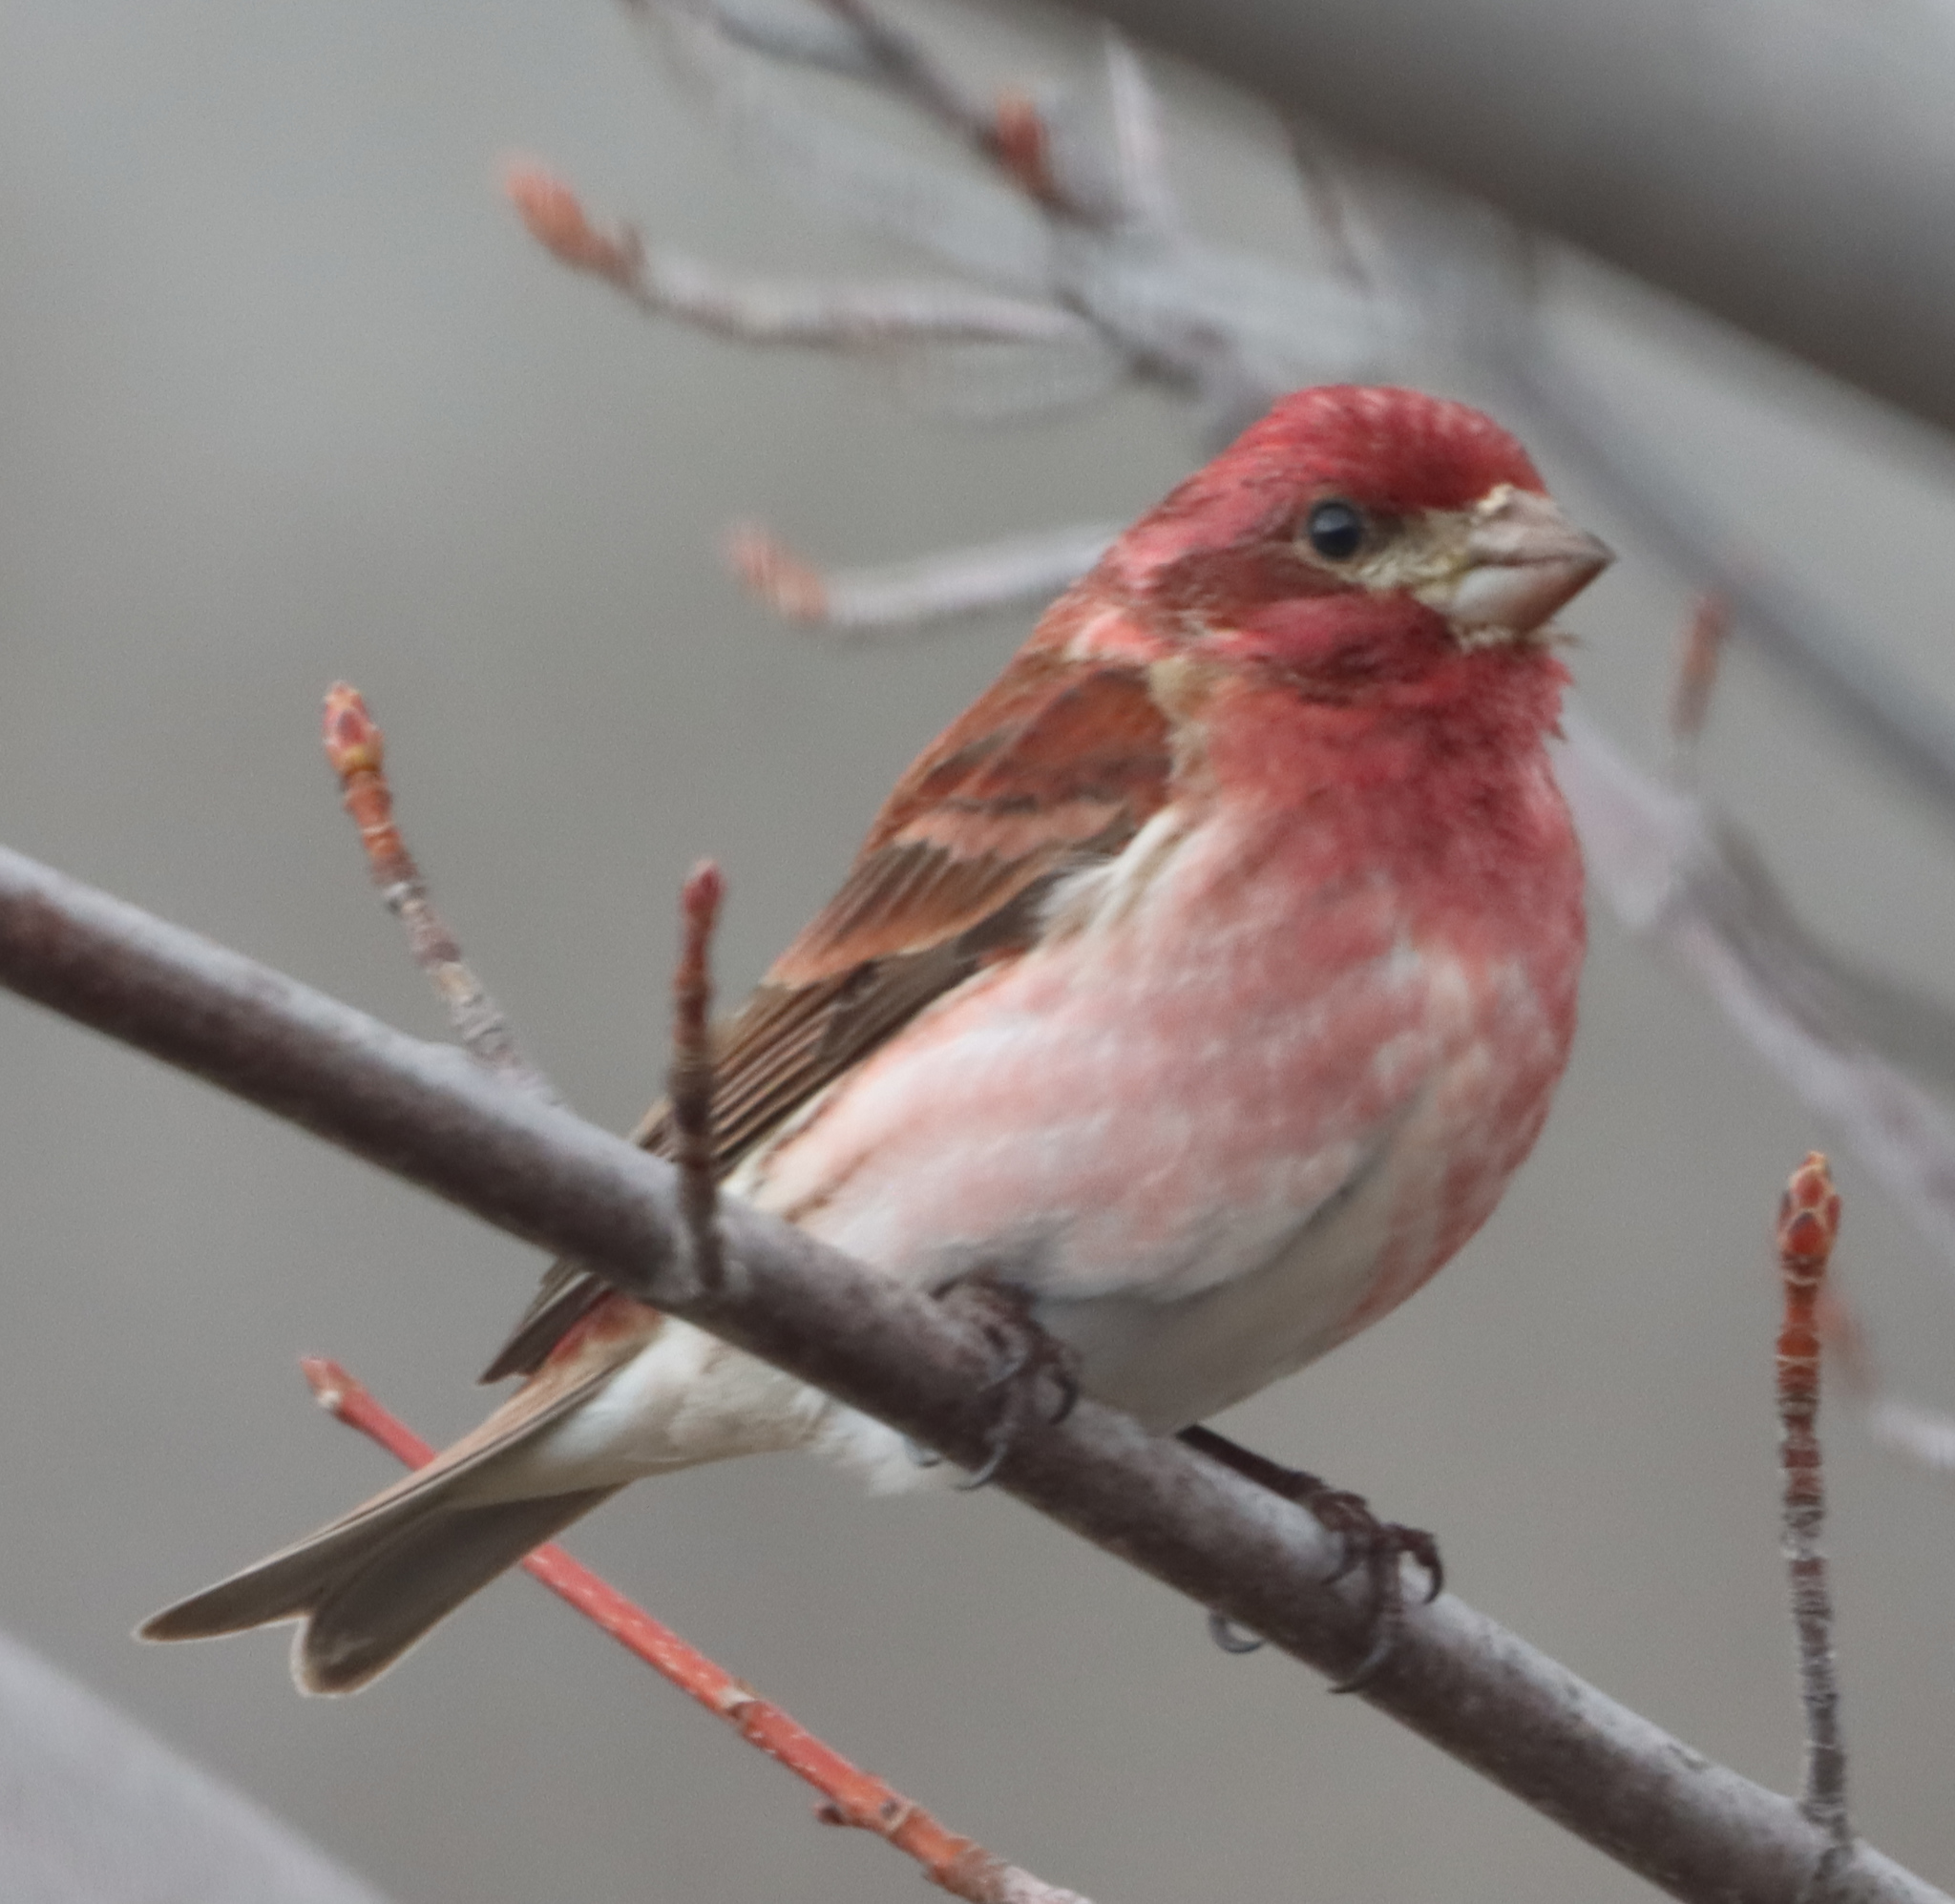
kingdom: Animalia
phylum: Chordata
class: Aves
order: Passeriformes
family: Fringillidae
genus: Haemorhous
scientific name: Haemorhous purpureus
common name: Purple finch
